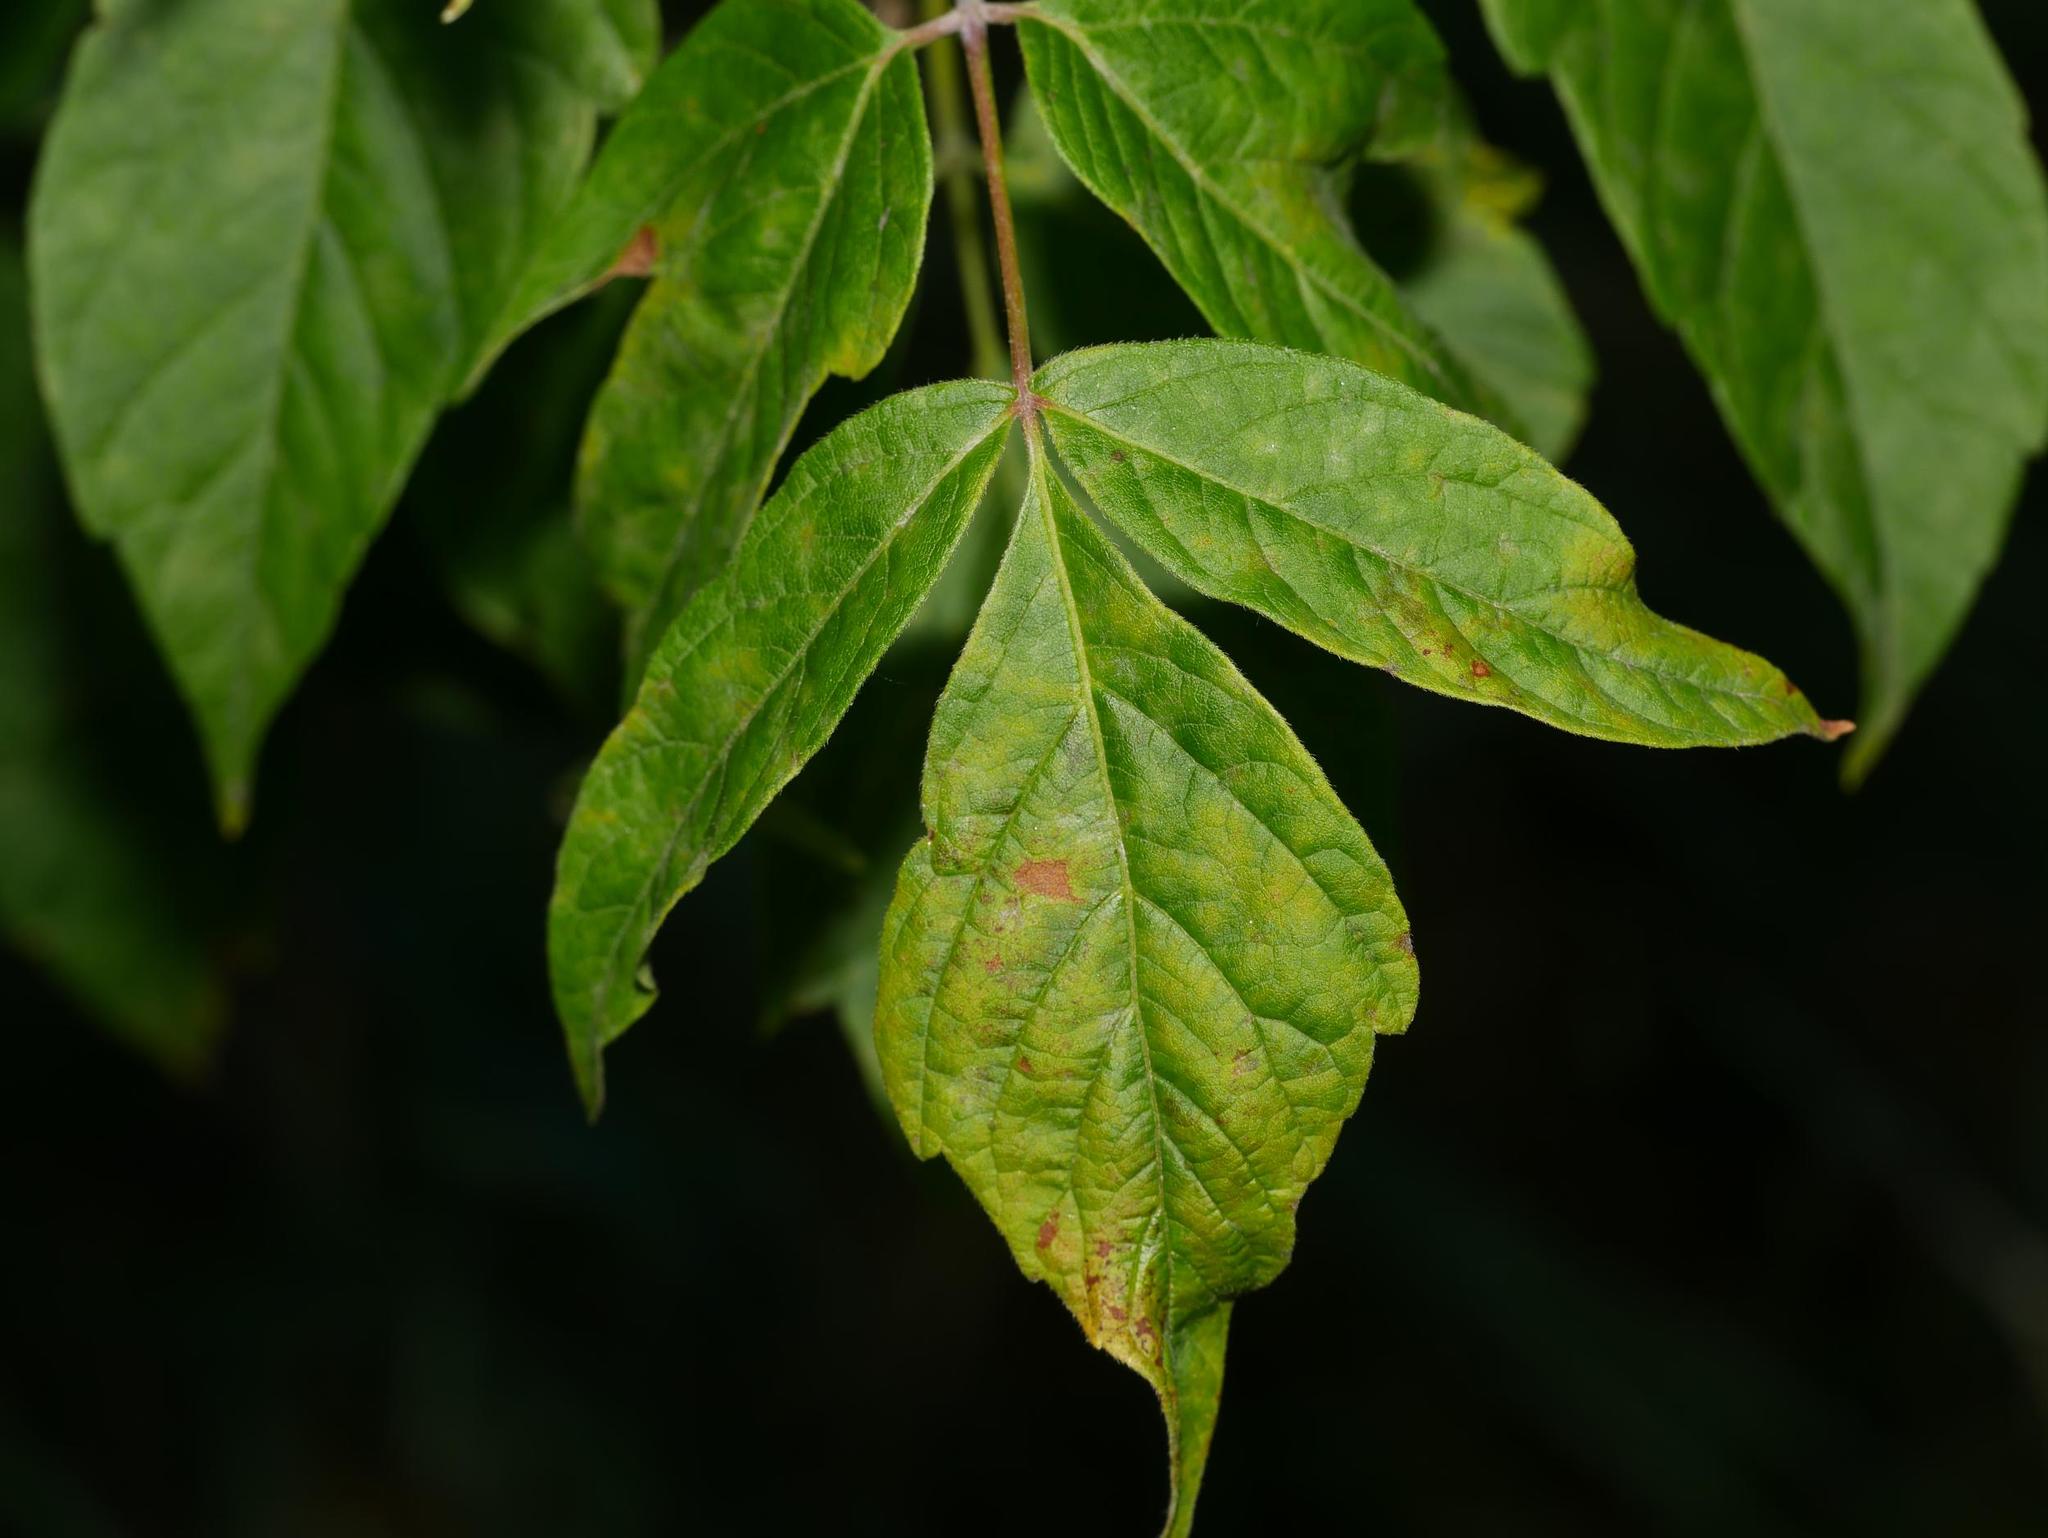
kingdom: Plantae
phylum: Tracheophyta
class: Magnoliopsida
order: Sapindales
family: Sapindaceae
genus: Acer
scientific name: Acer negundo
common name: Ashleaf maple
